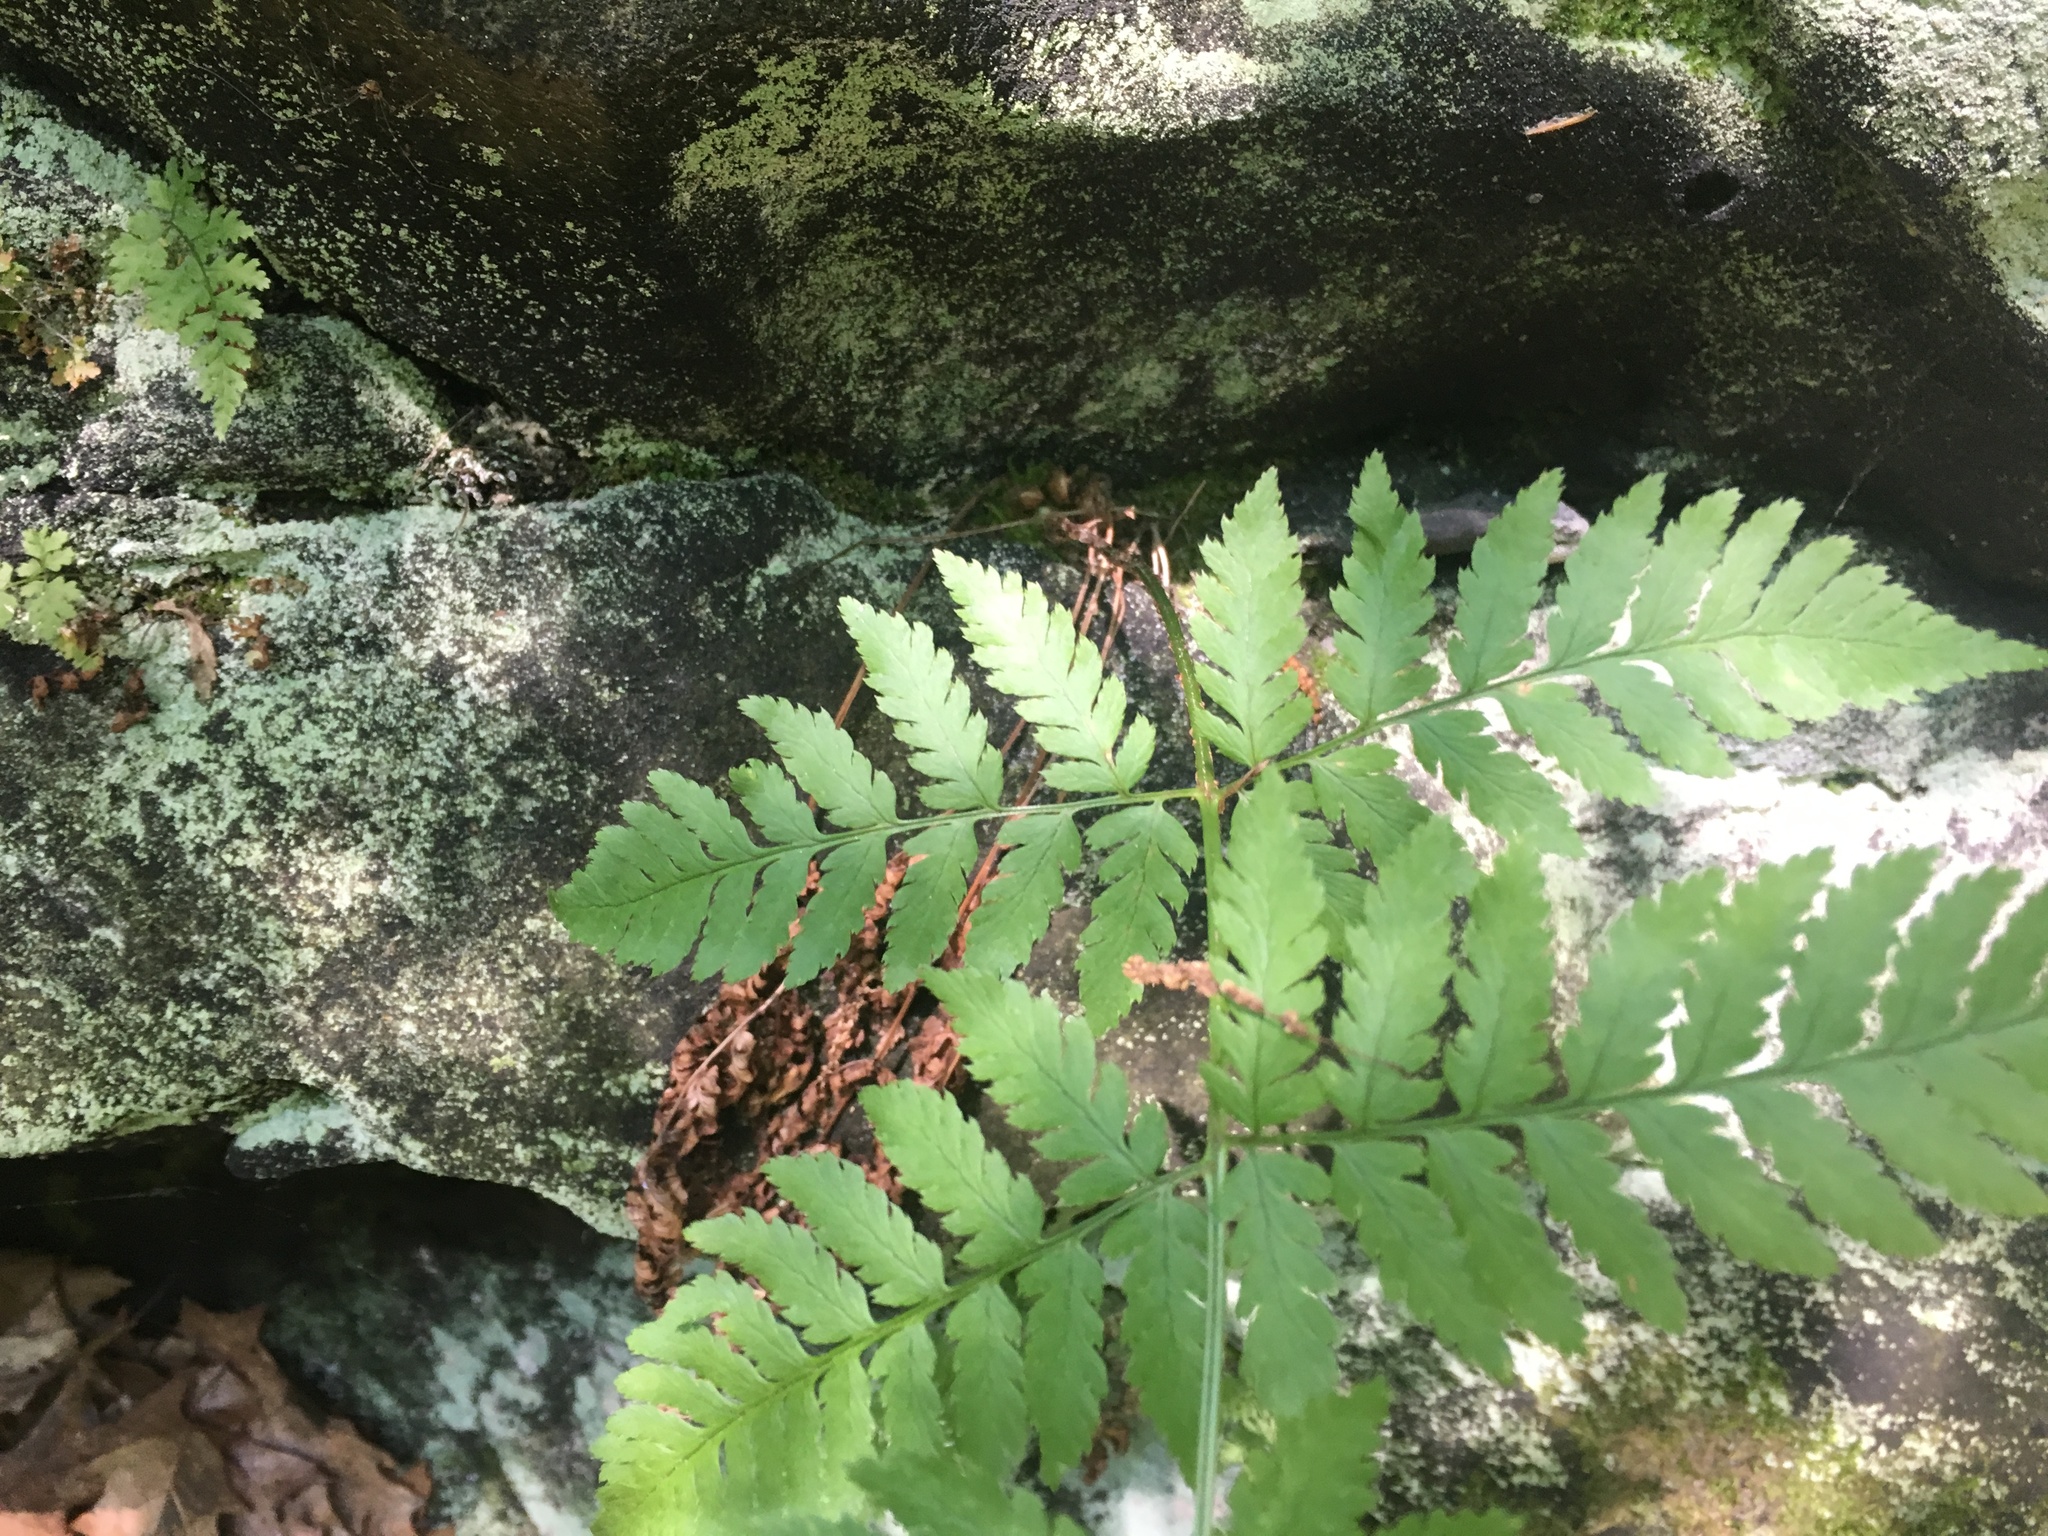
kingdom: Plantae
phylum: Tracheophyta
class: Polypodiopsida
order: Polypodiales
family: Dryopteridaceae
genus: Dryopteris
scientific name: Dryopteris carthusiana
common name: Narrow buckler-fern
